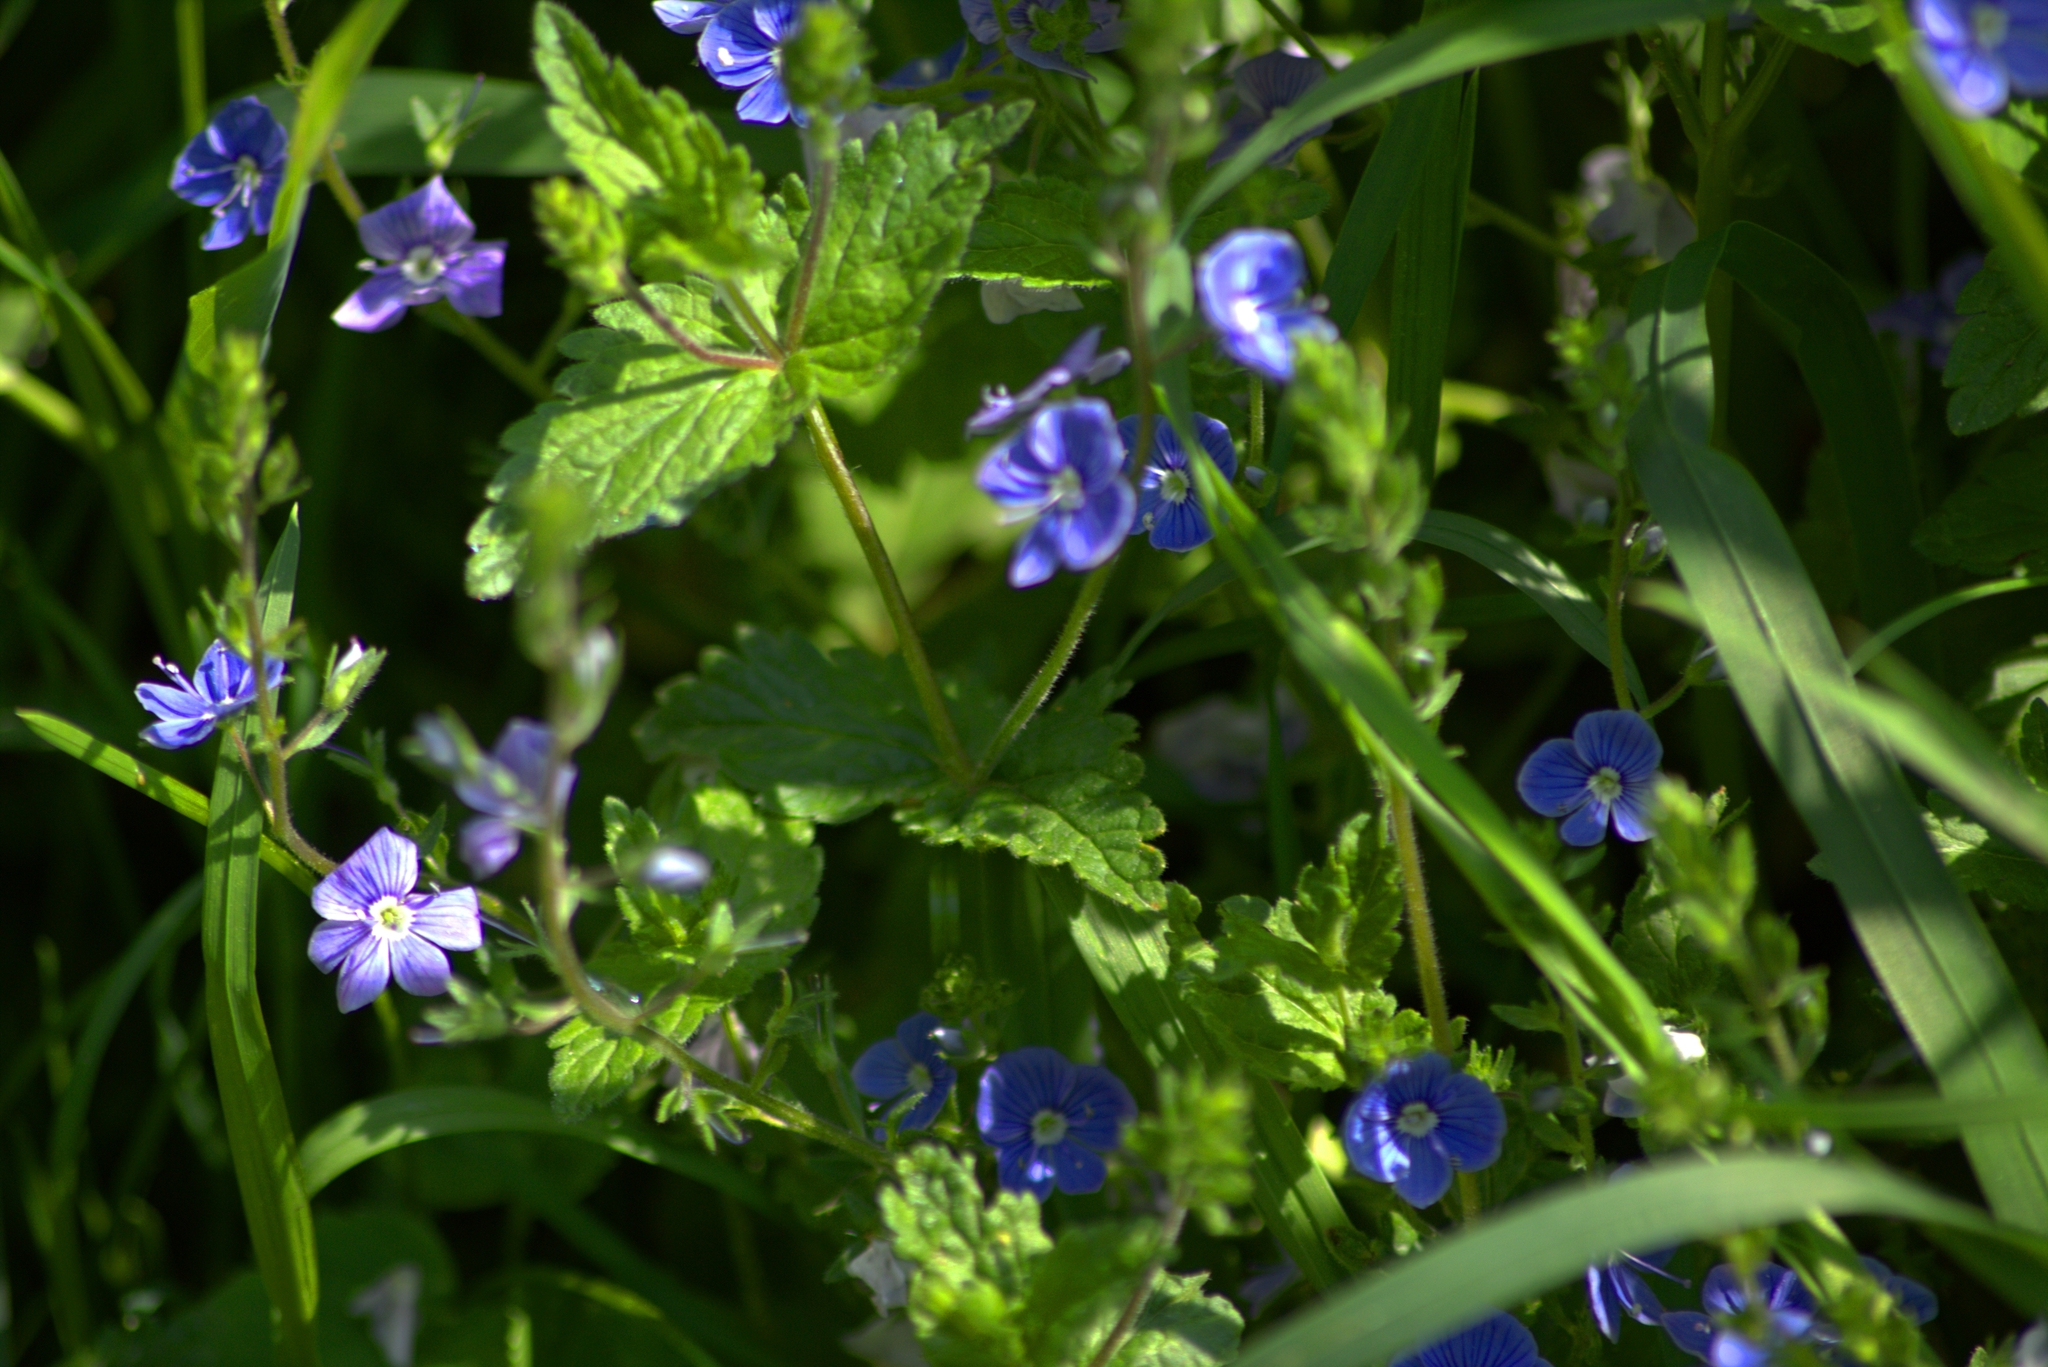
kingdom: Plantae
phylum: Tracheophyta
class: Magnoliopsida
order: Lamiales
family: Plantaginaceae
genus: Veronica
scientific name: Veronica chamaedrys
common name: Germander speedwell
